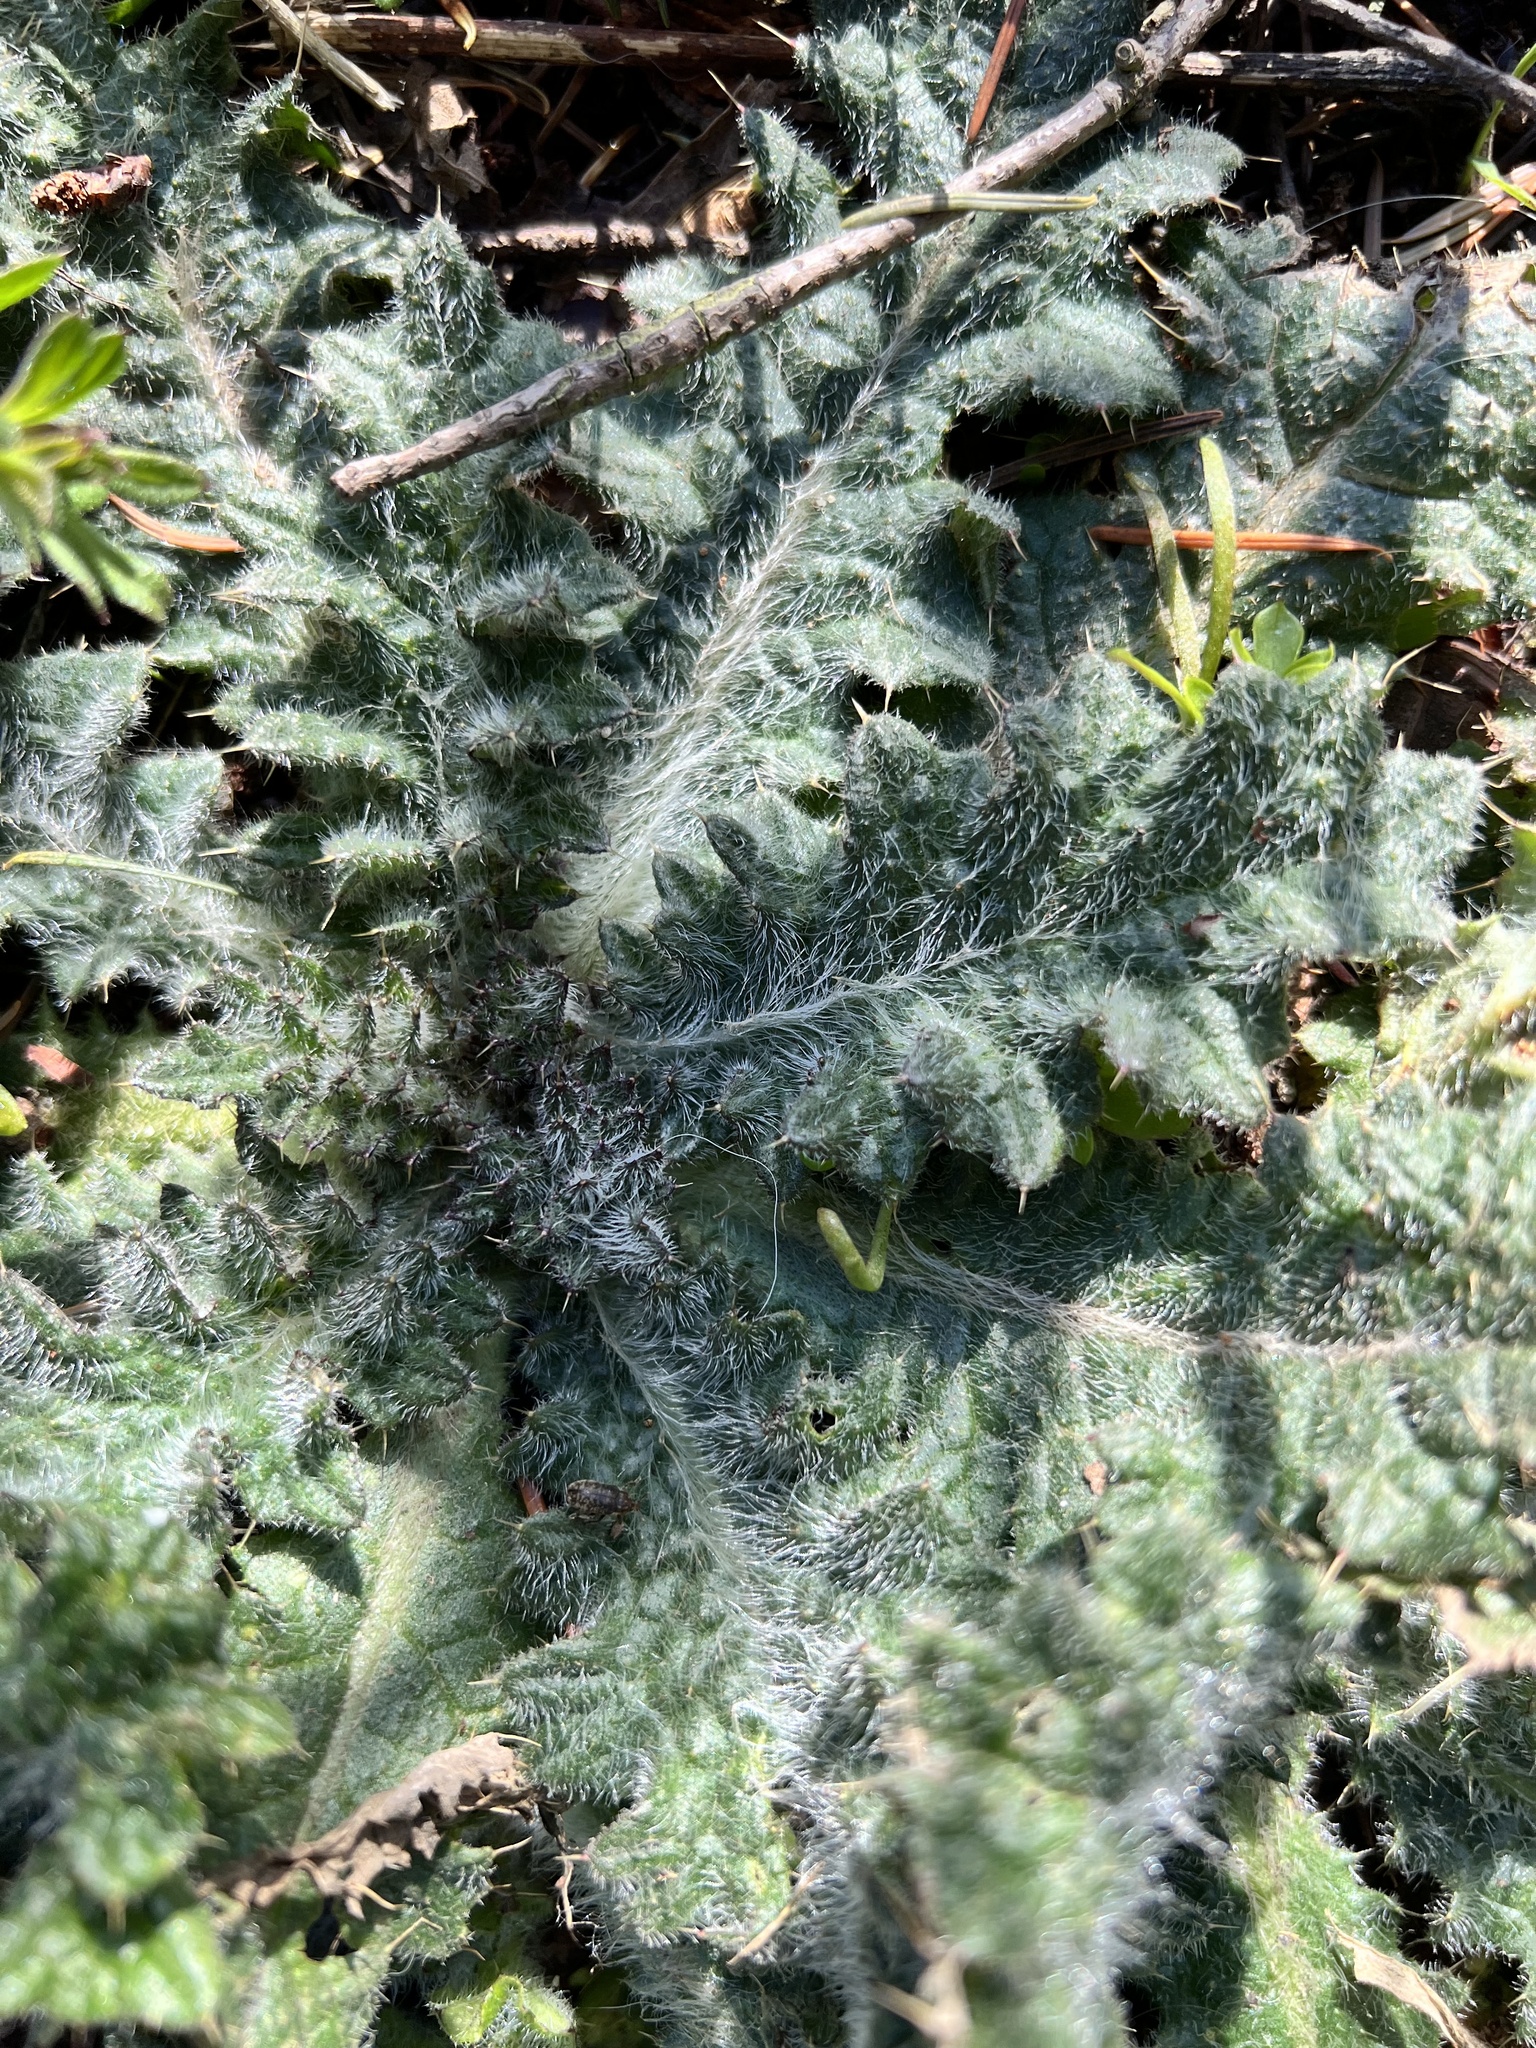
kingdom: Plantae
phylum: Tracheophyta
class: Magnoliopsida
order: Asterales
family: Asteraceae
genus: Cirsium
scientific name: Cirsium vulgare
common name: Bull thistle
